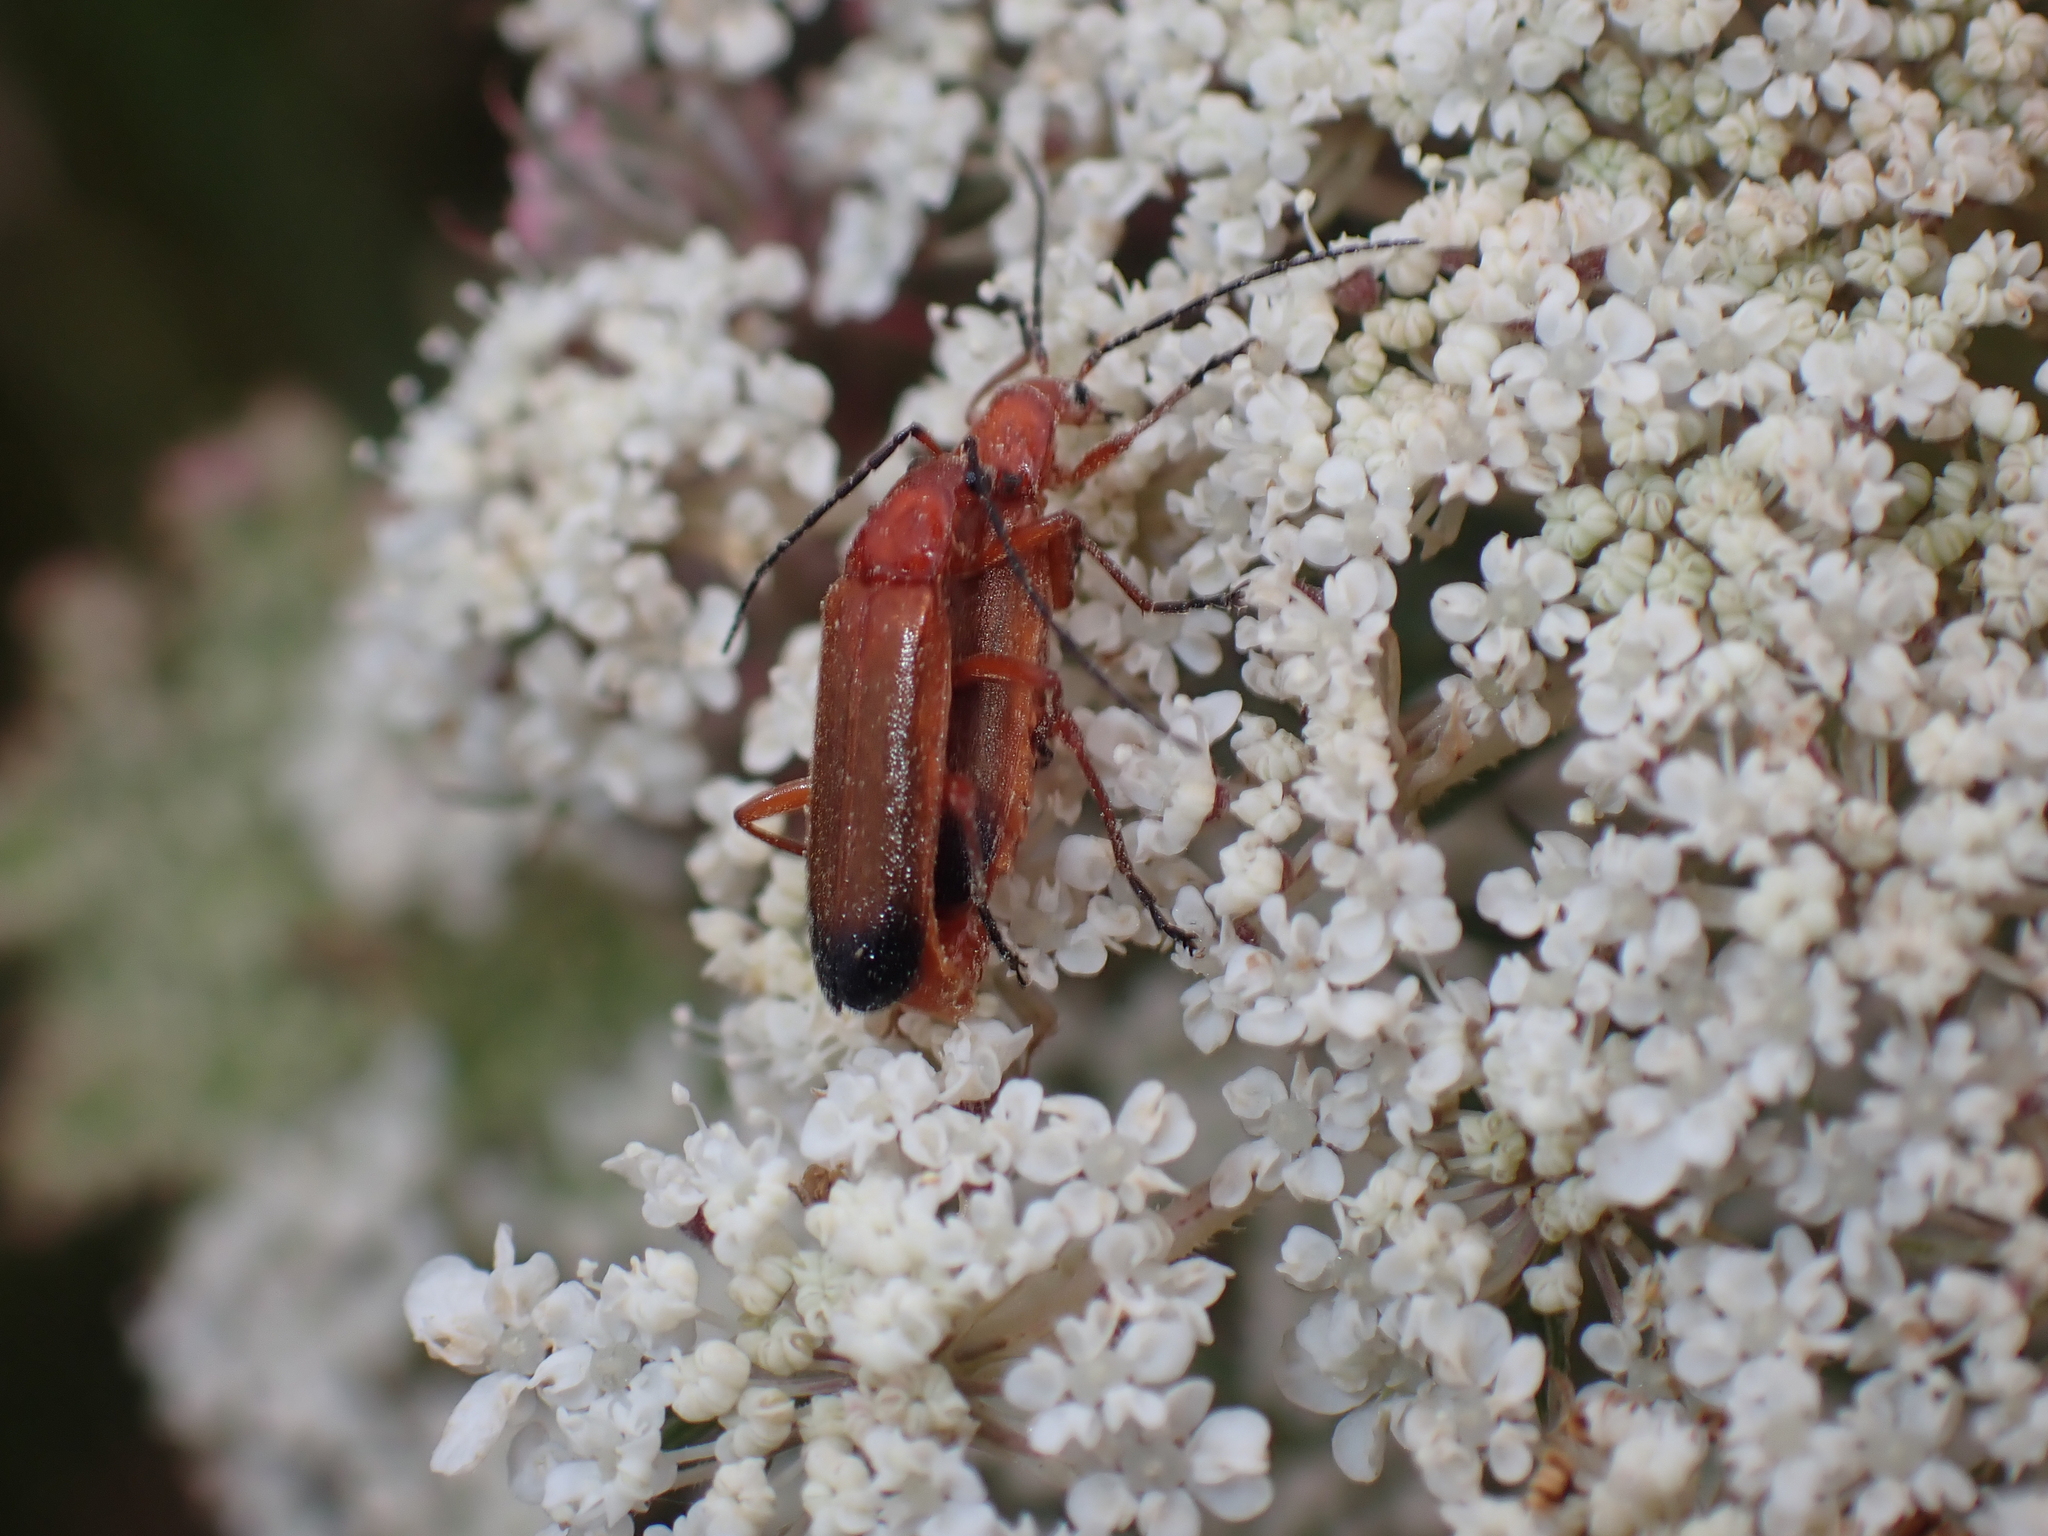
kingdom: Animalia
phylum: Arthropoda
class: Insecta
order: Coleoptera
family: Cantharidae
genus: Rhagonycha
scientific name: Rhagonycha fulva
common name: Common red soldier beetle
